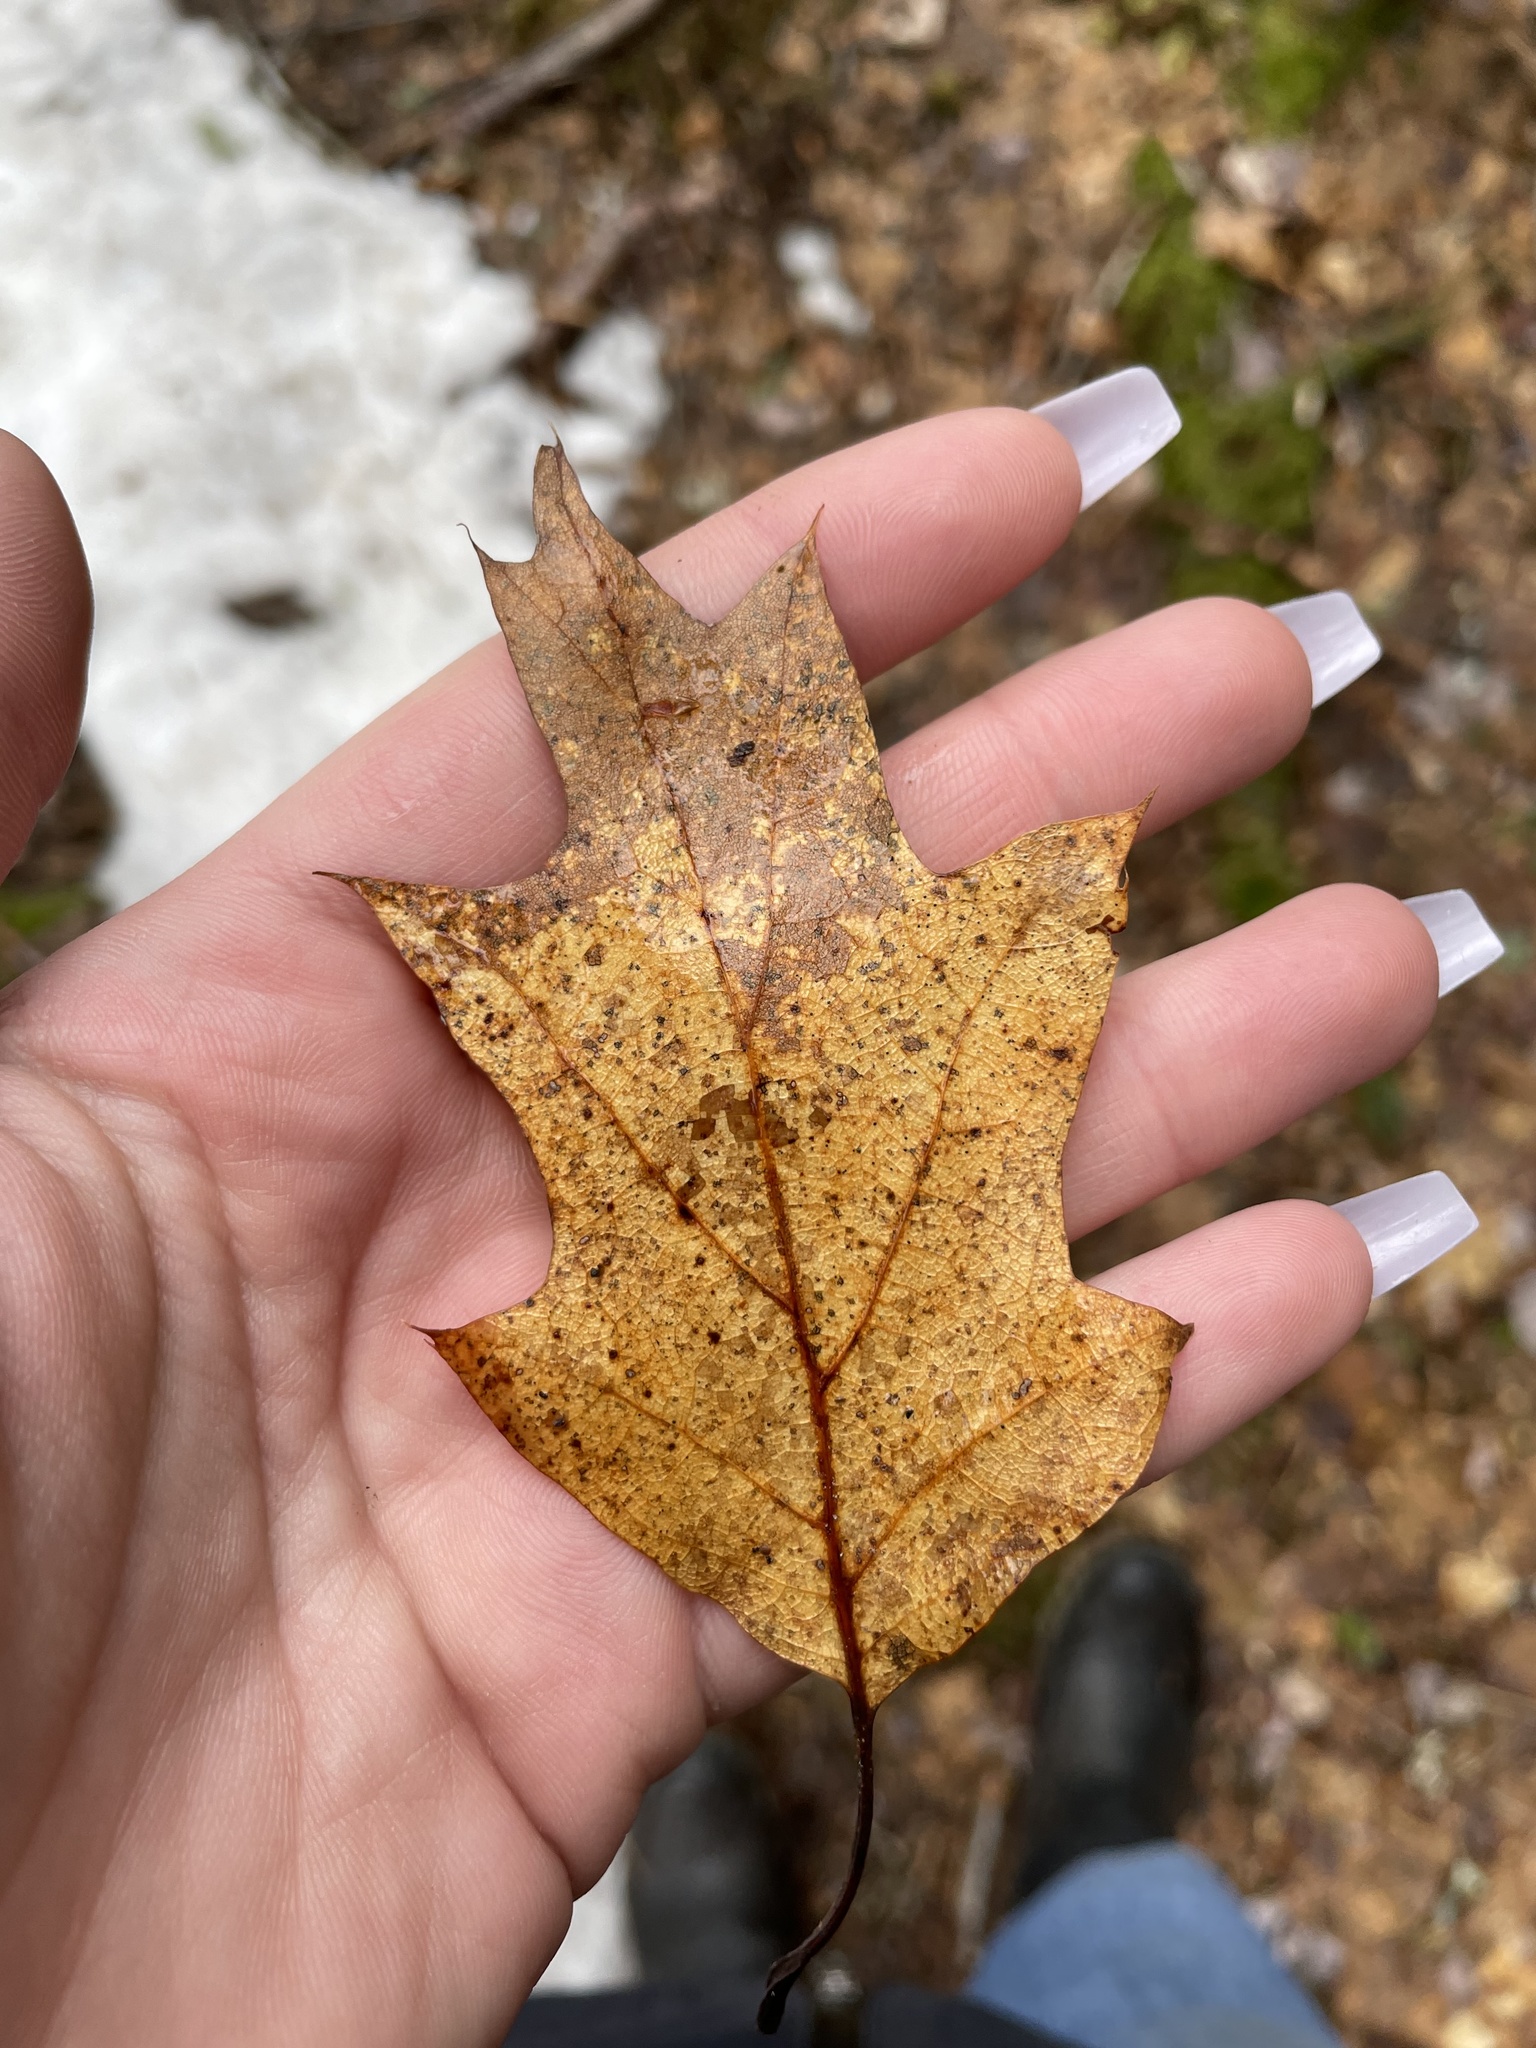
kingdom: Plantae
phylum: Tracheophyta
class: Magnoliopsida
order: Fagales
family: Fagaceae
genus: Quercus
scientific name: Quercus rubra
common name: Red oak
